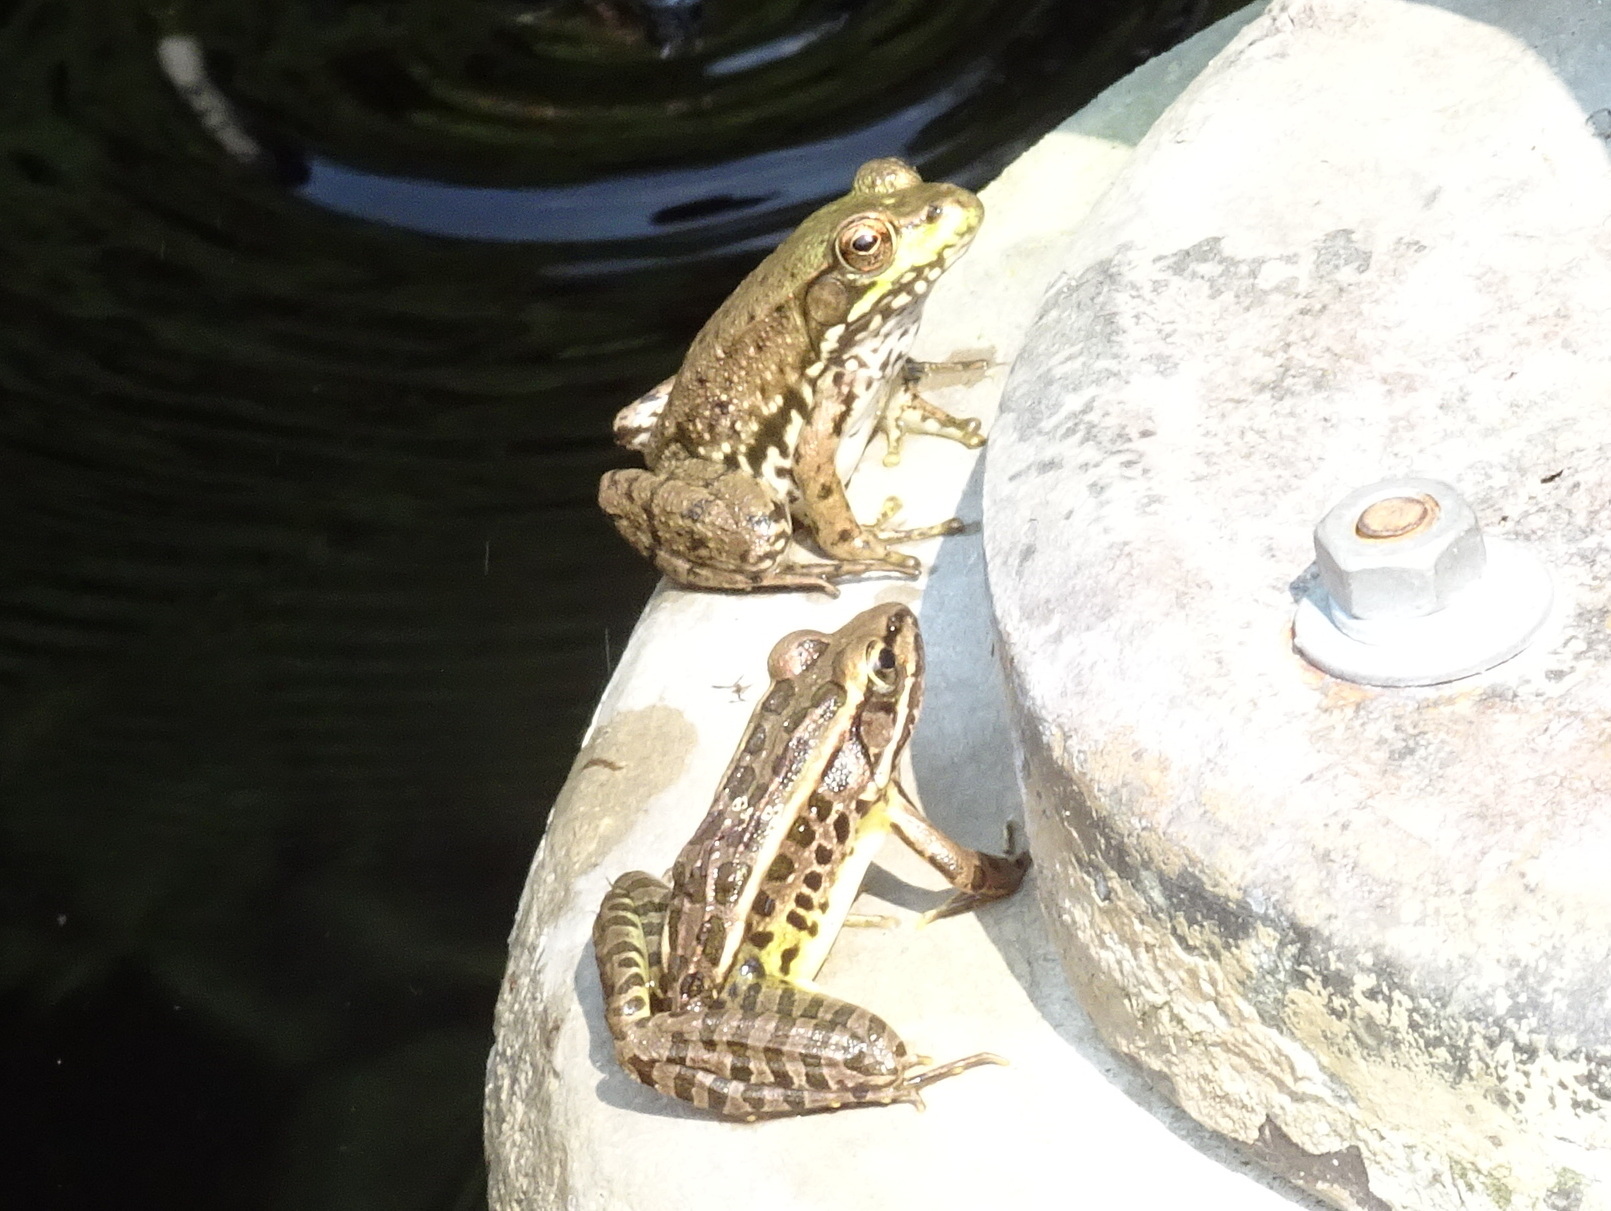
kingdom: Animalia
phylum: Chordata
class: Amphibia
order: Anura
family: Ranidae
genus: Lithobates
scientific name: Lithobates palustris
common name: Pickerel frog
